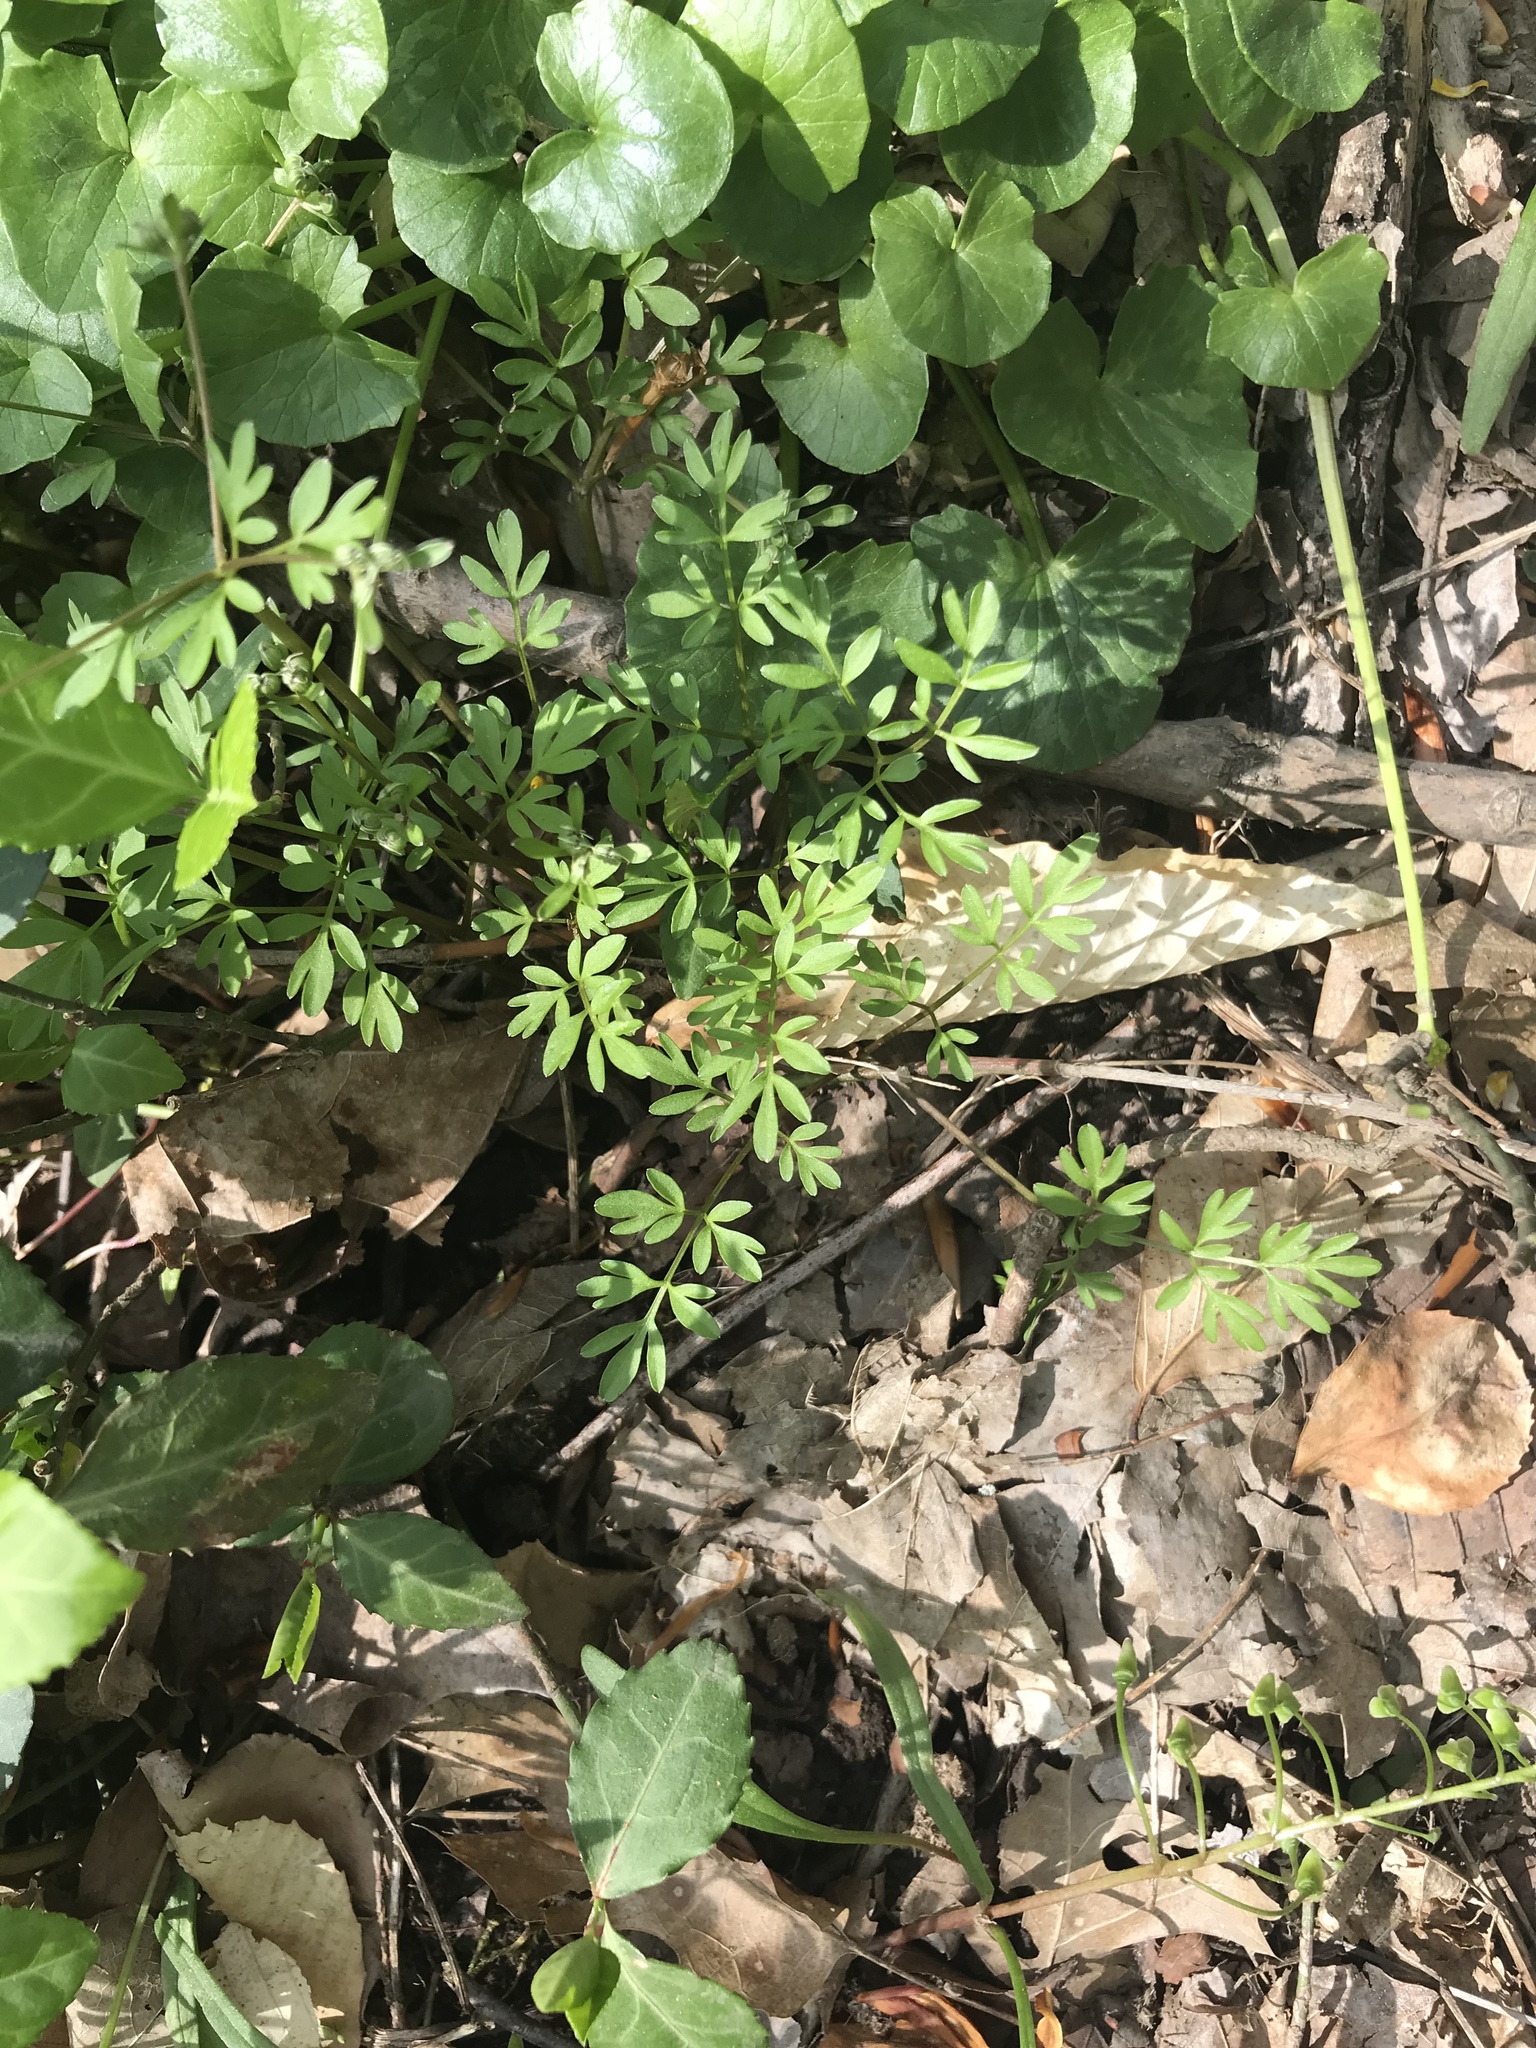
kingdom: Plantae
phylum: Tracheophyta
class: Magnoliopsida
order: Apiales
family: Apiaceae
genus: Erigenia
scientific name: Erigenia bulbosa
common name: Pepper-and-salt
